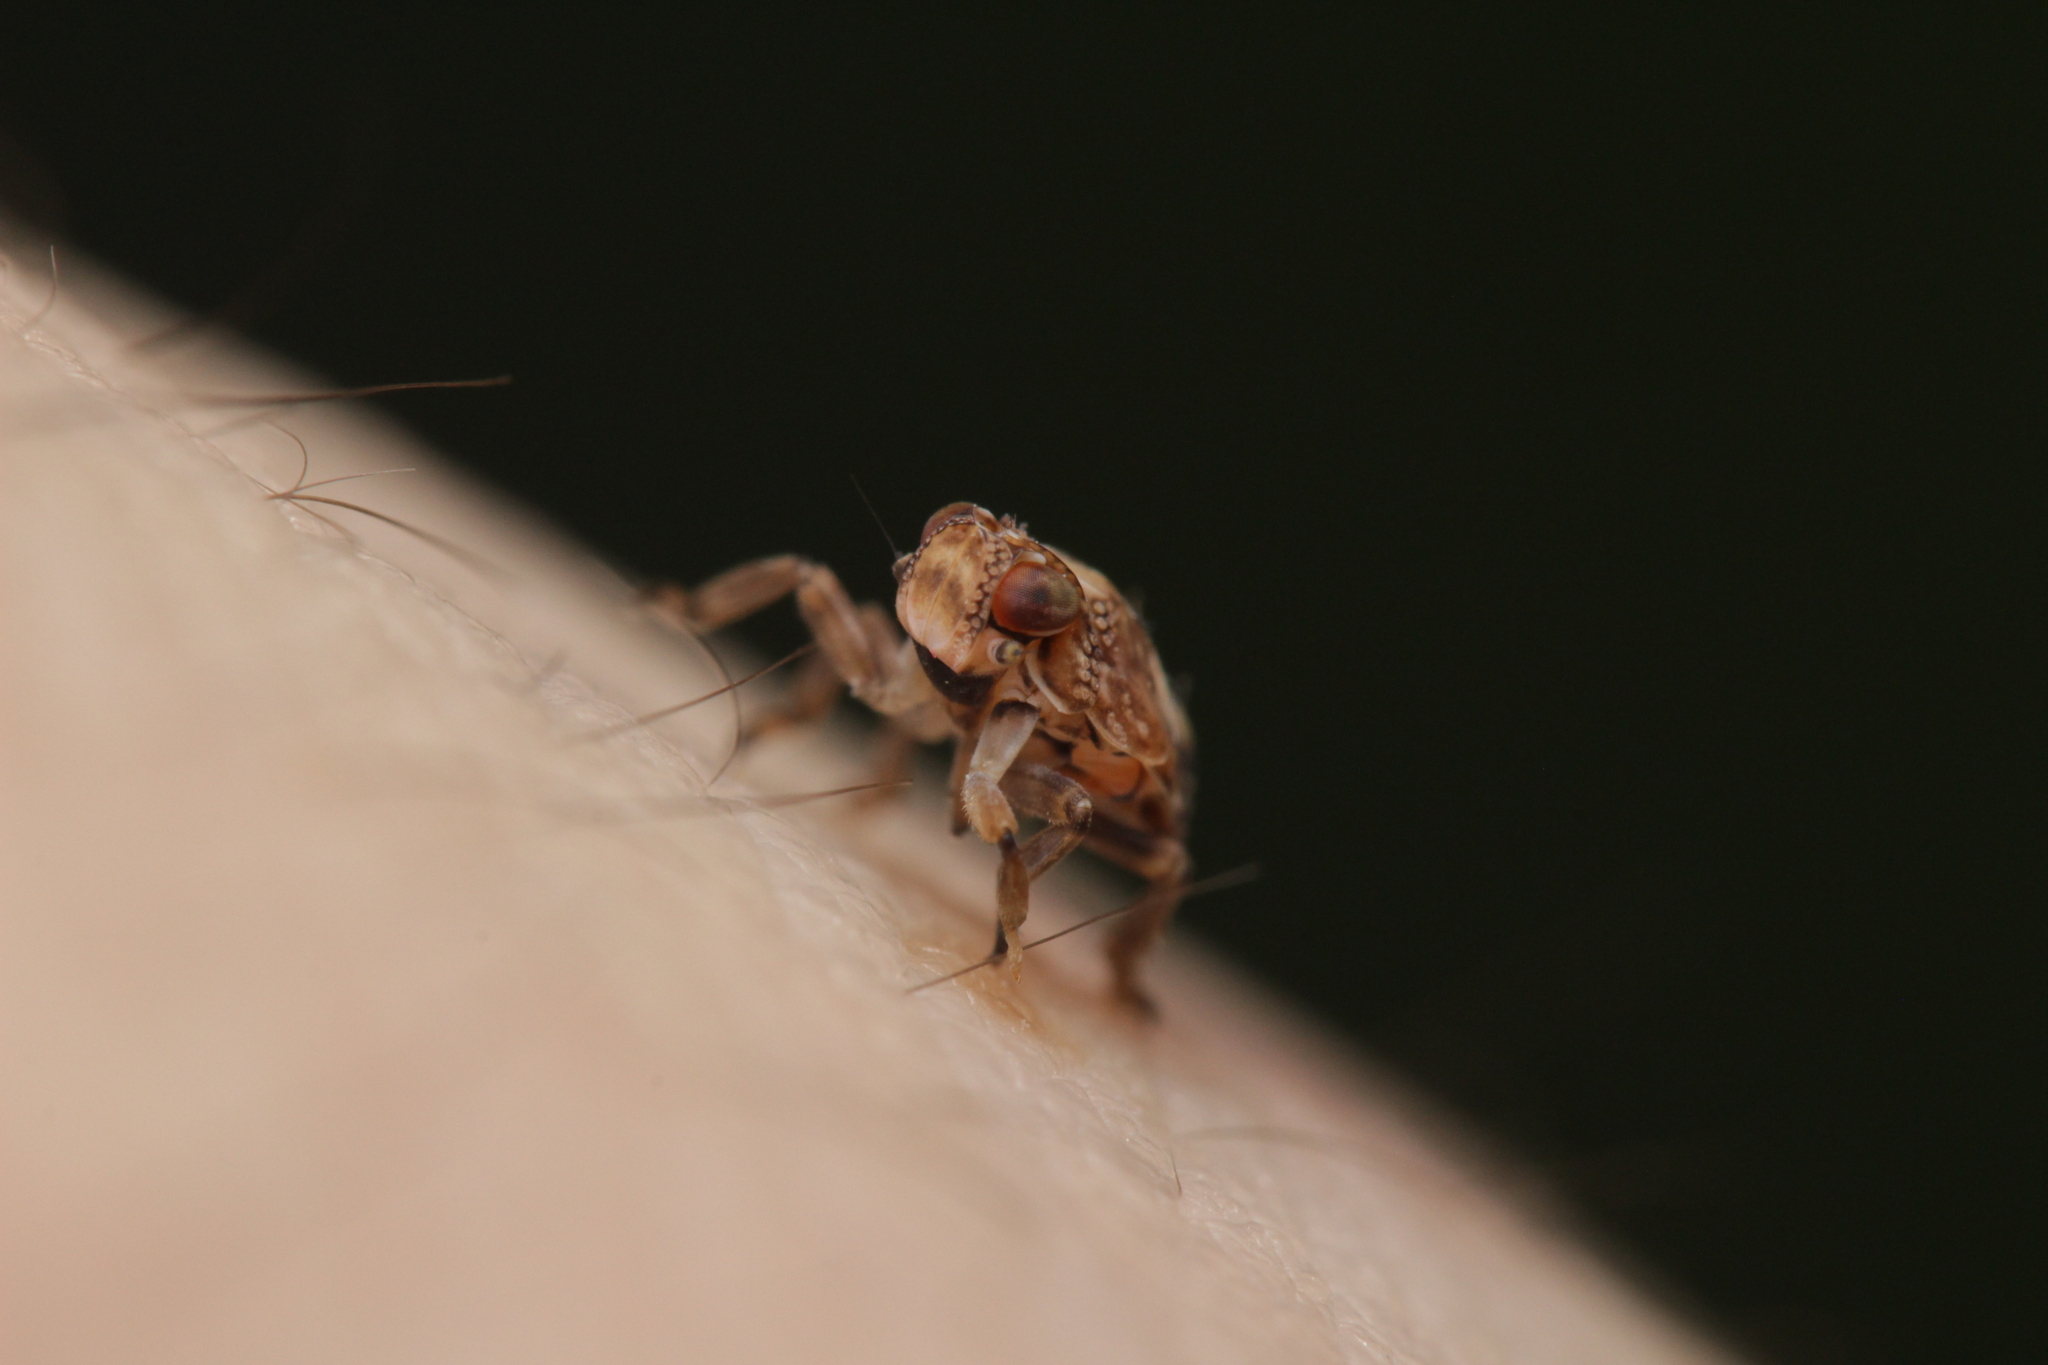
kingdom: Animalia
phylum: Arthropoda
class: Insecta
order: Hemiptera
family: Issidae
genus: Issus
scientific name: Issus coleoptratus
